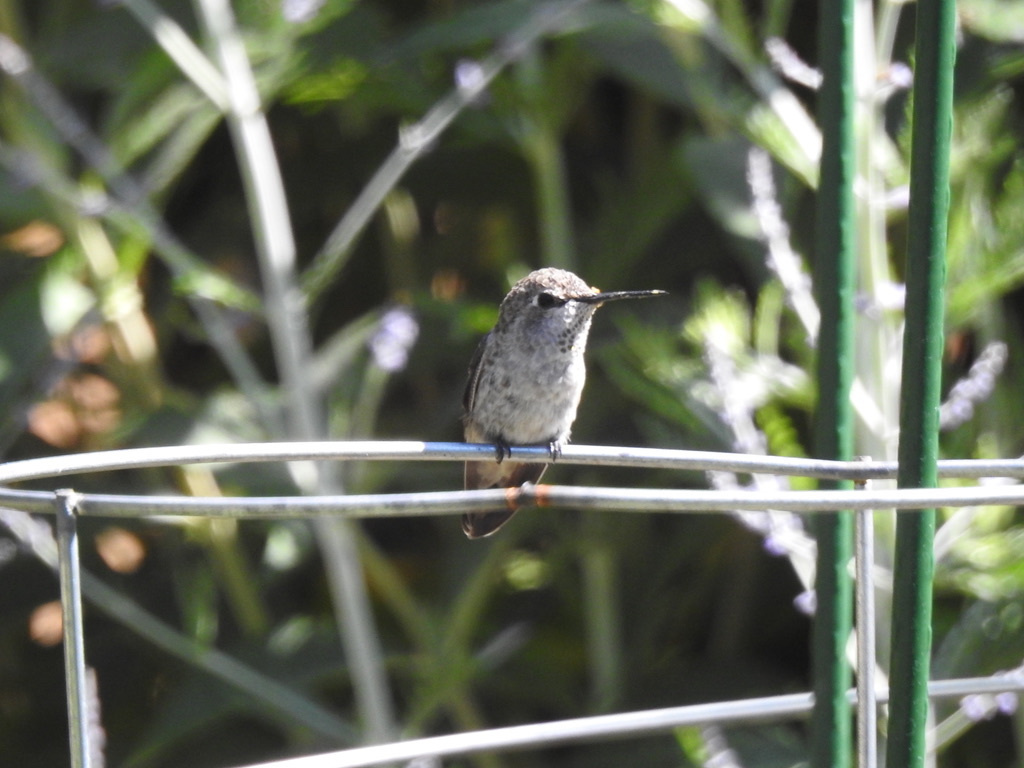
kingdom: Animalia
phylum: Chordata
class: Aves
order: Apodiformes
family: Trochilidae
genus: Calypte
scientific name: Calypte anna
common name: Anna's hummingbird
